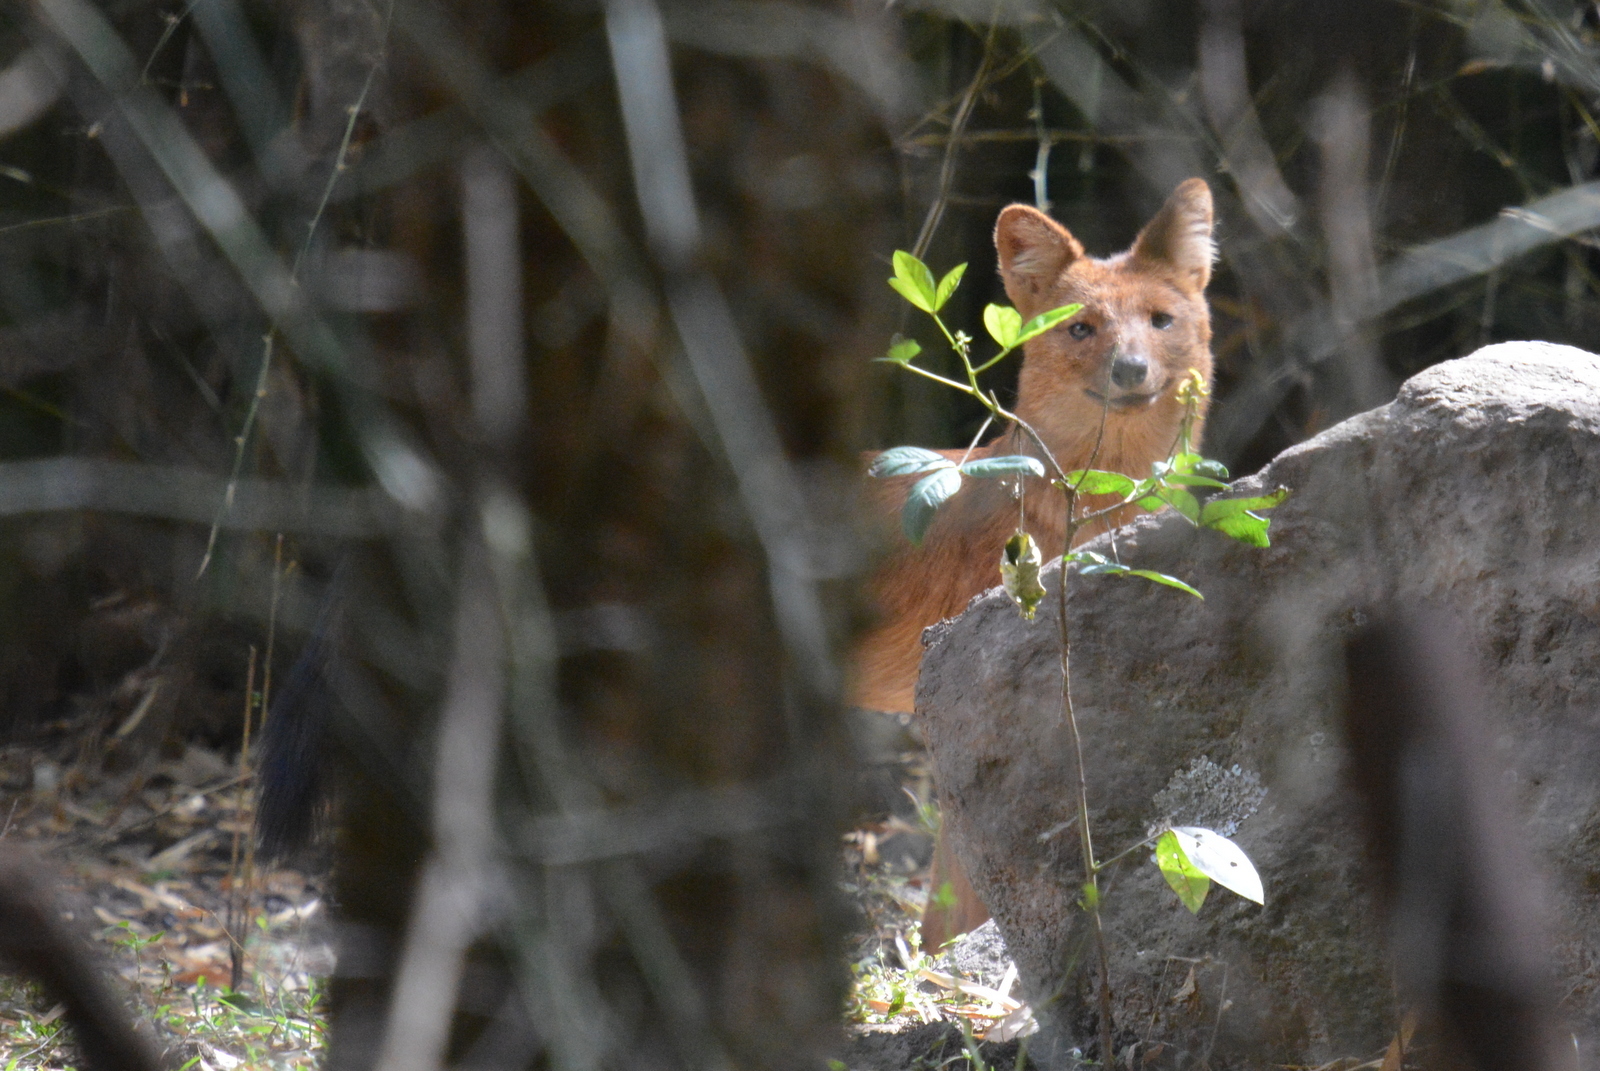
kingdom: Animalia
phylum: Chordata
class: Mammalia
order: Carnivora
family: Canidae
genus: Cuon
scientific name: Cuon alpinus
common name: Dhole
